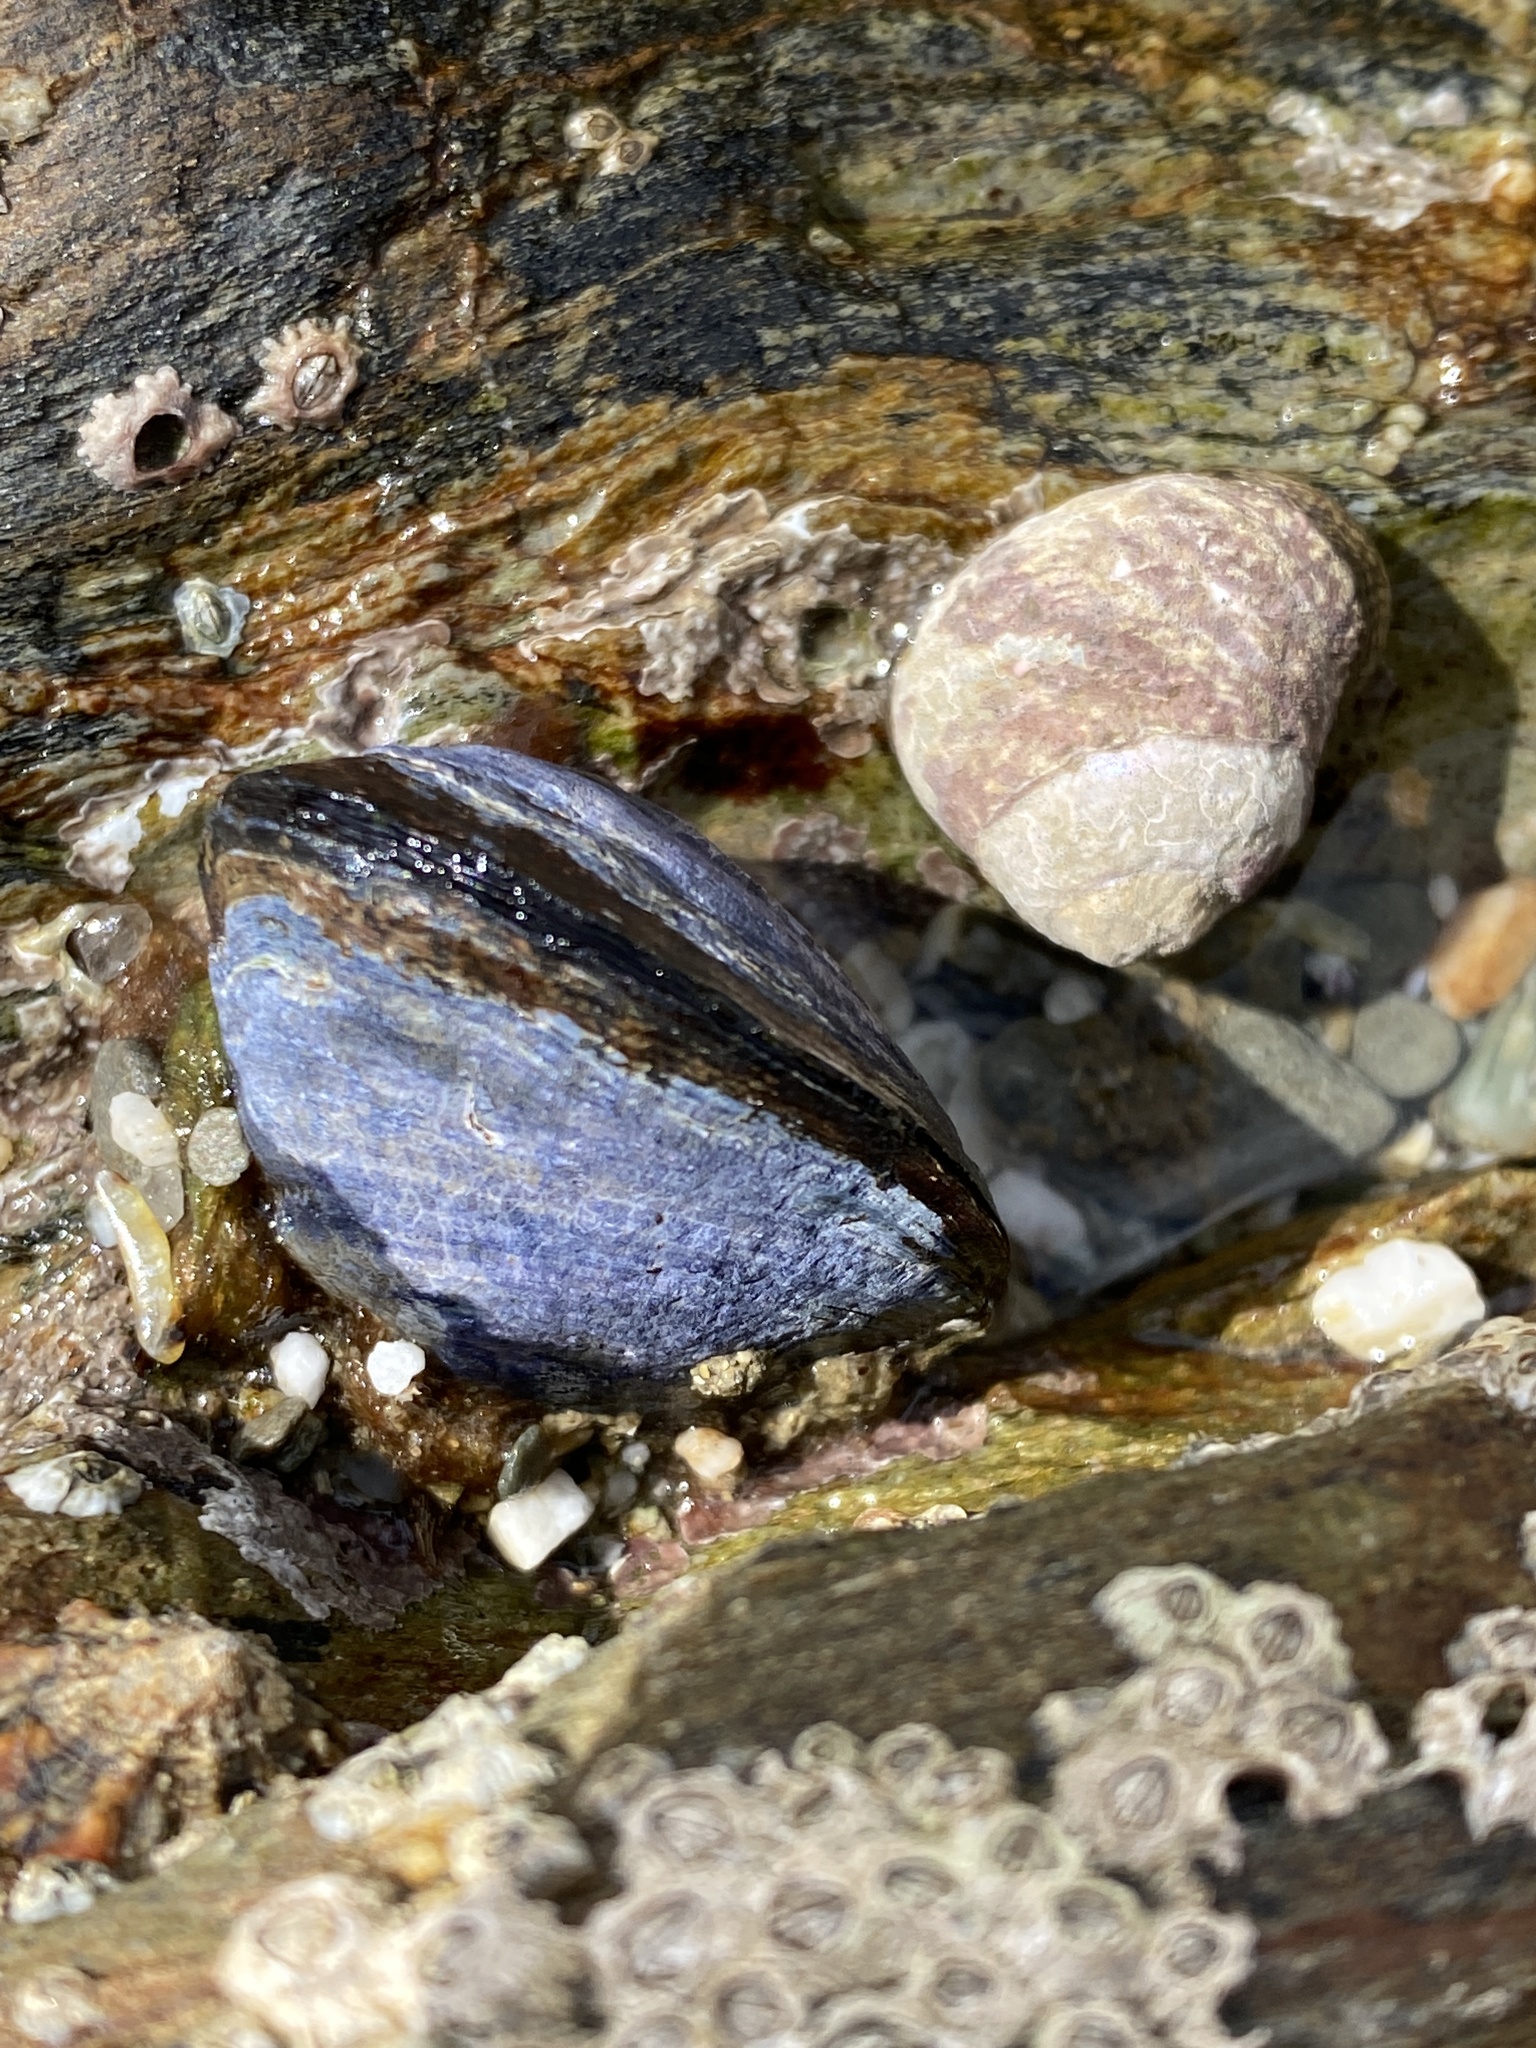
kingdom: Animalia
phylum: Mollusca
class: Bivalvia
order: Mytilida
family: Mytilidae
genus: Mytilus
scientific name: Mytilus edulis
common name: Blue mussel
